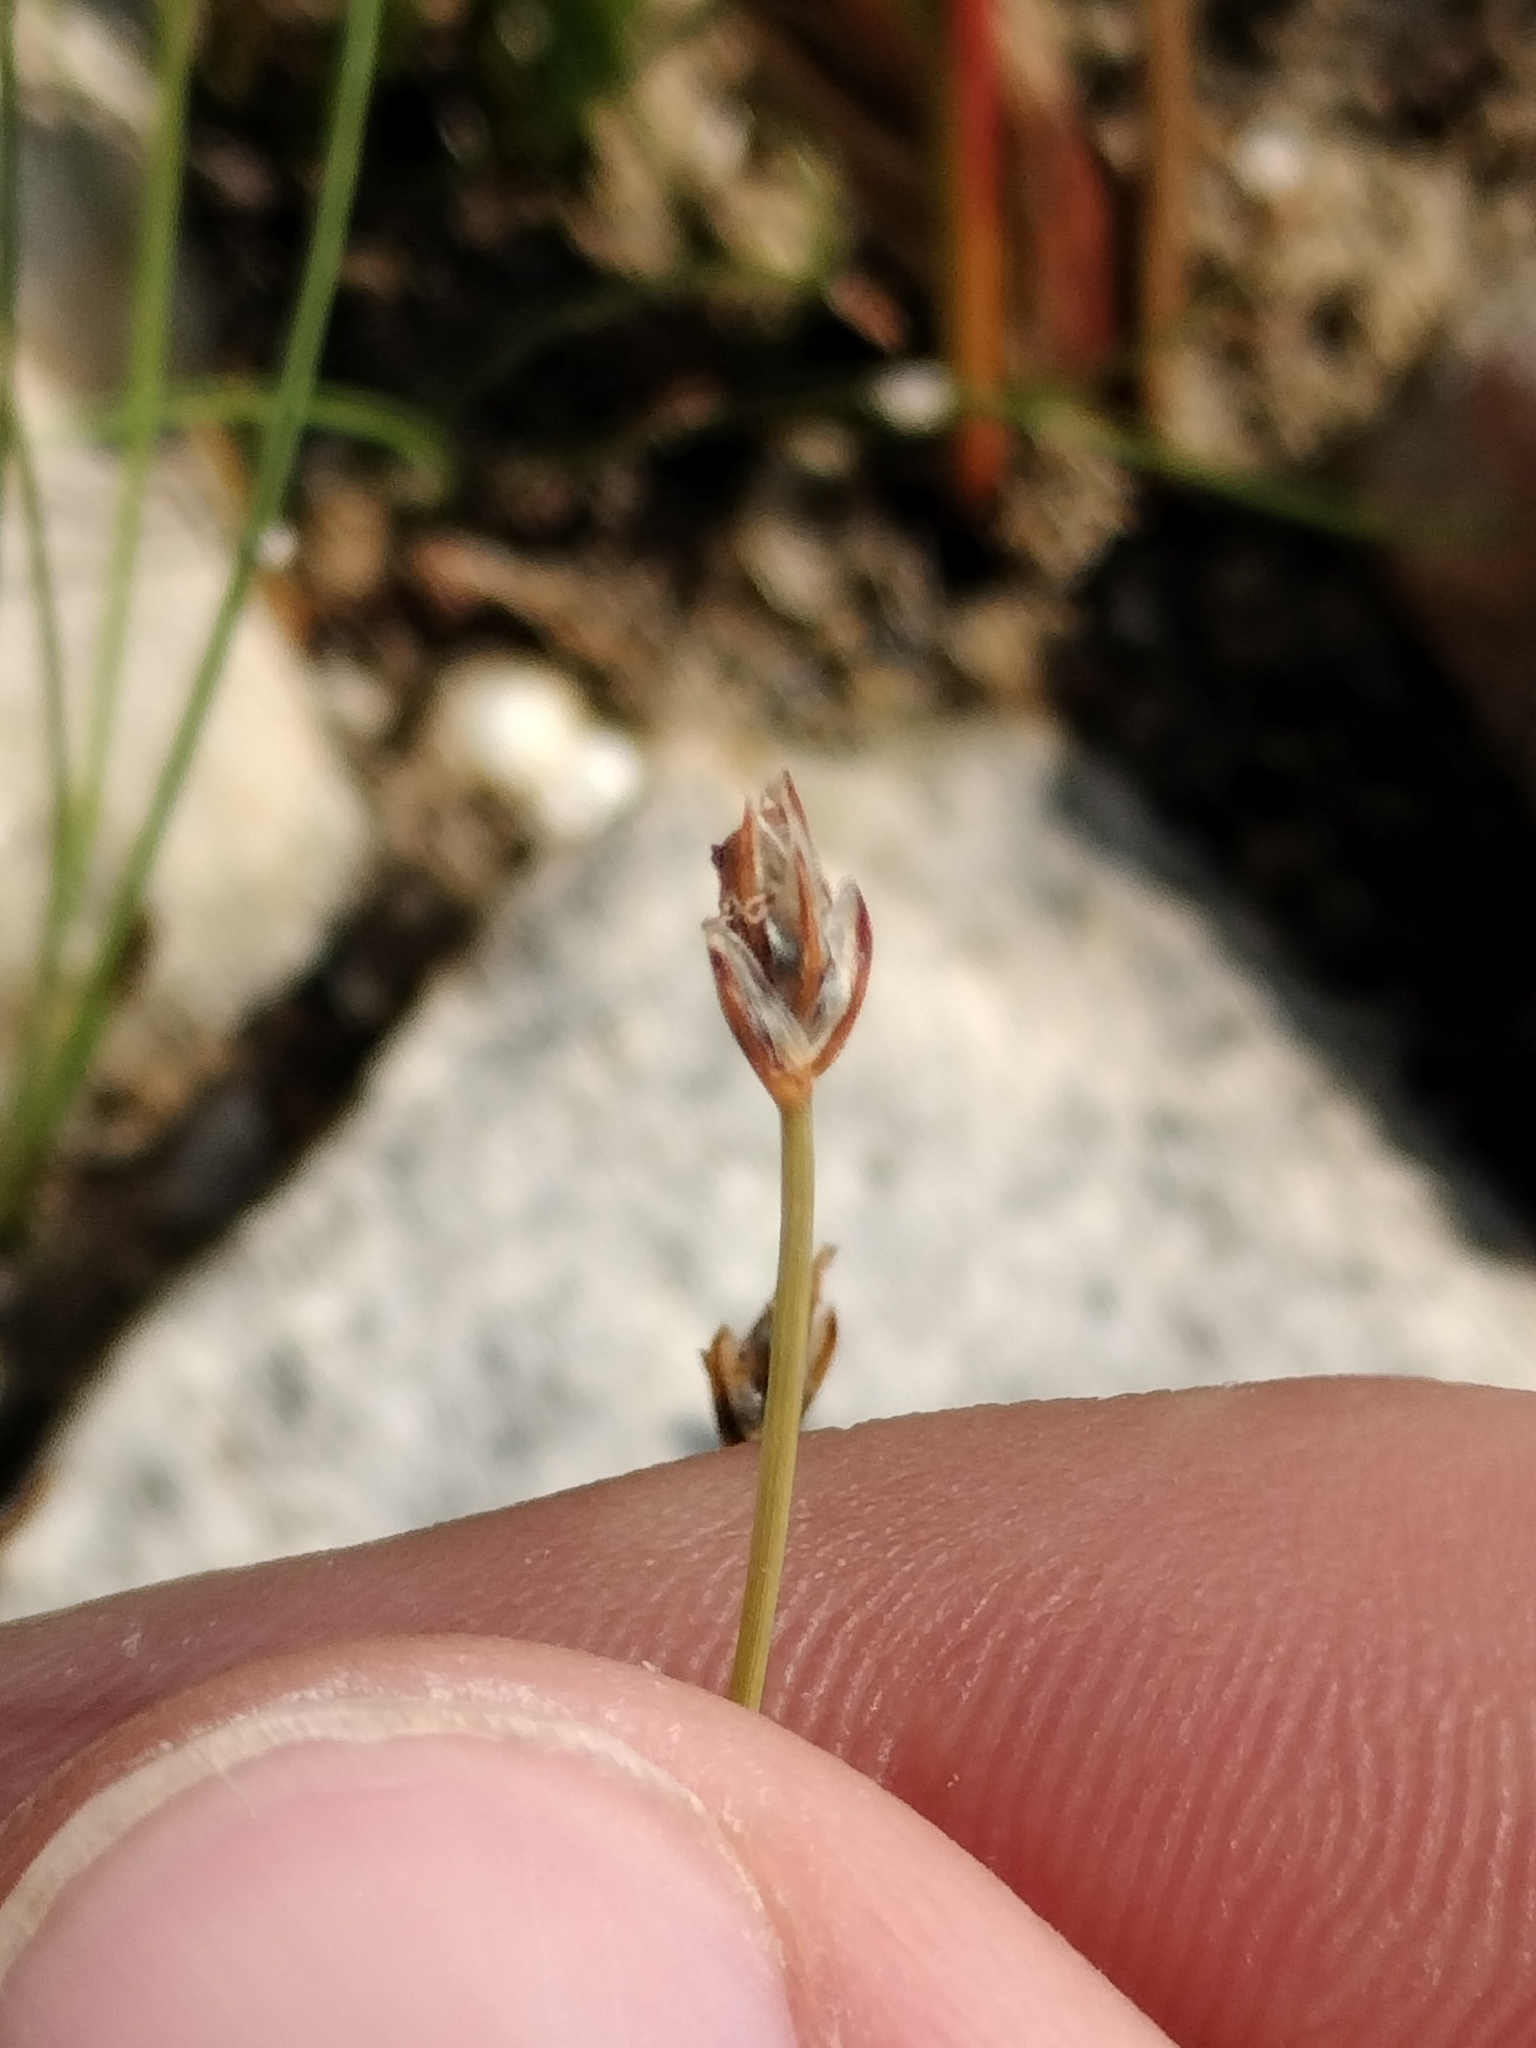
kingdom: Plantae
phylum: Tracheophyta
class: Liliopsida
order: Poales
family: Cyperaceae
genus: Eleocharis
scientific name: Eleocharis quinqueflora
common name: Few-flowered spike-rush
